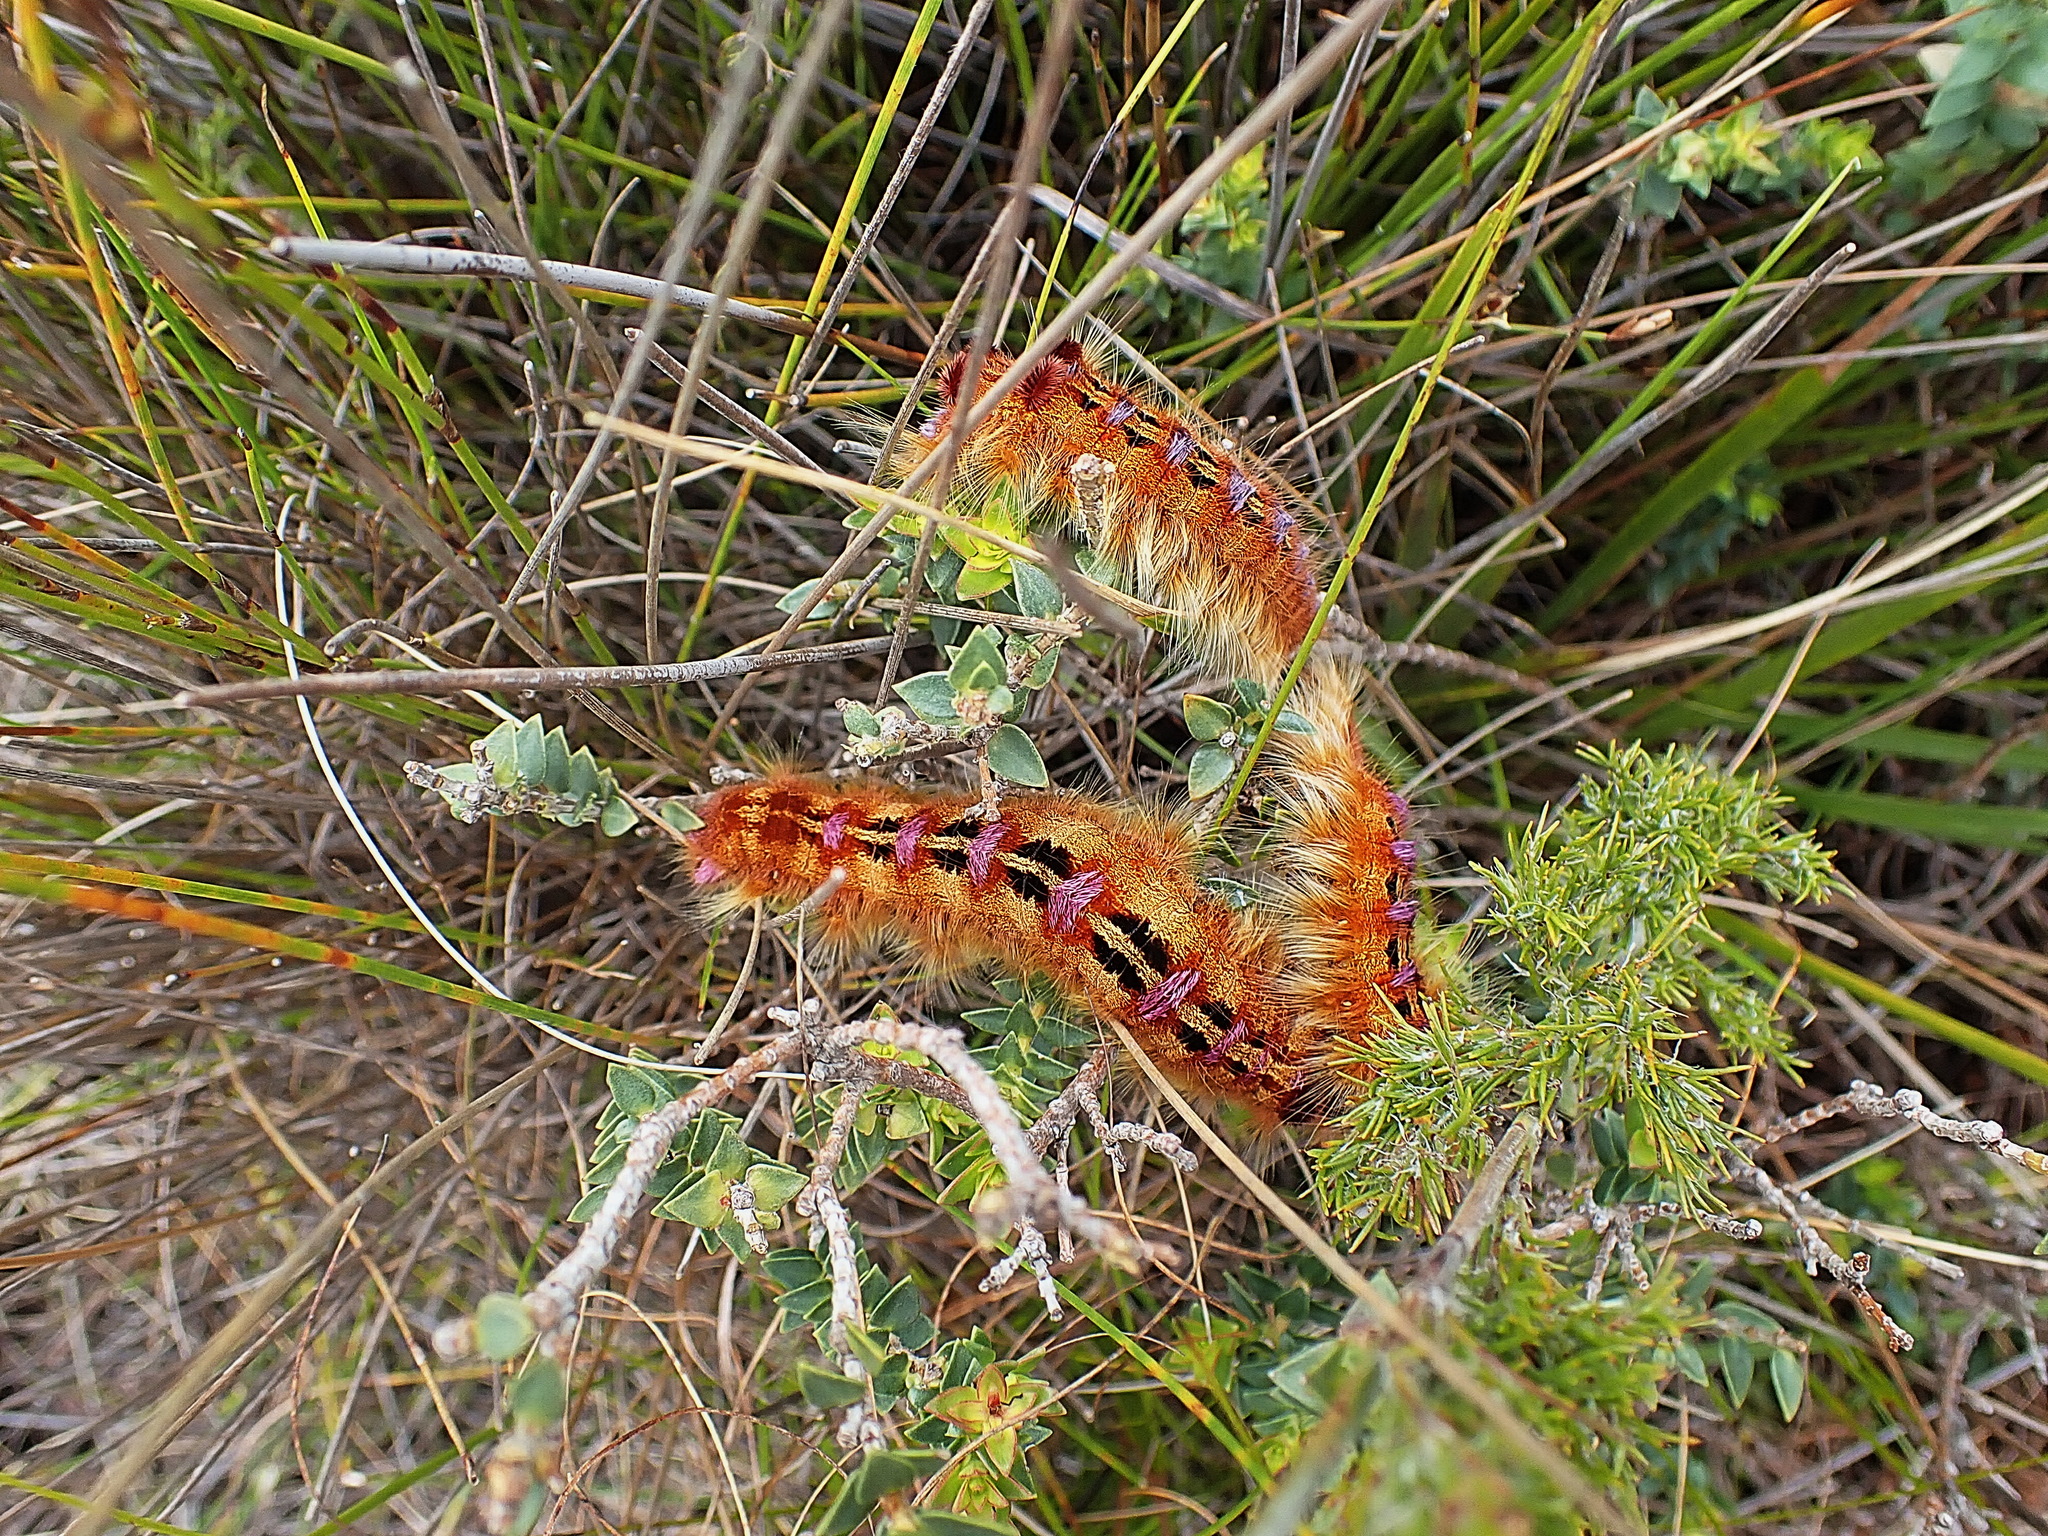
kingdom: Animalia
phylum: Arthropoda
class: Insecta
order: Lepidoptera
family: Lasiocampidae
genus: Eutricha
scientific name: Eutricha bifascia
